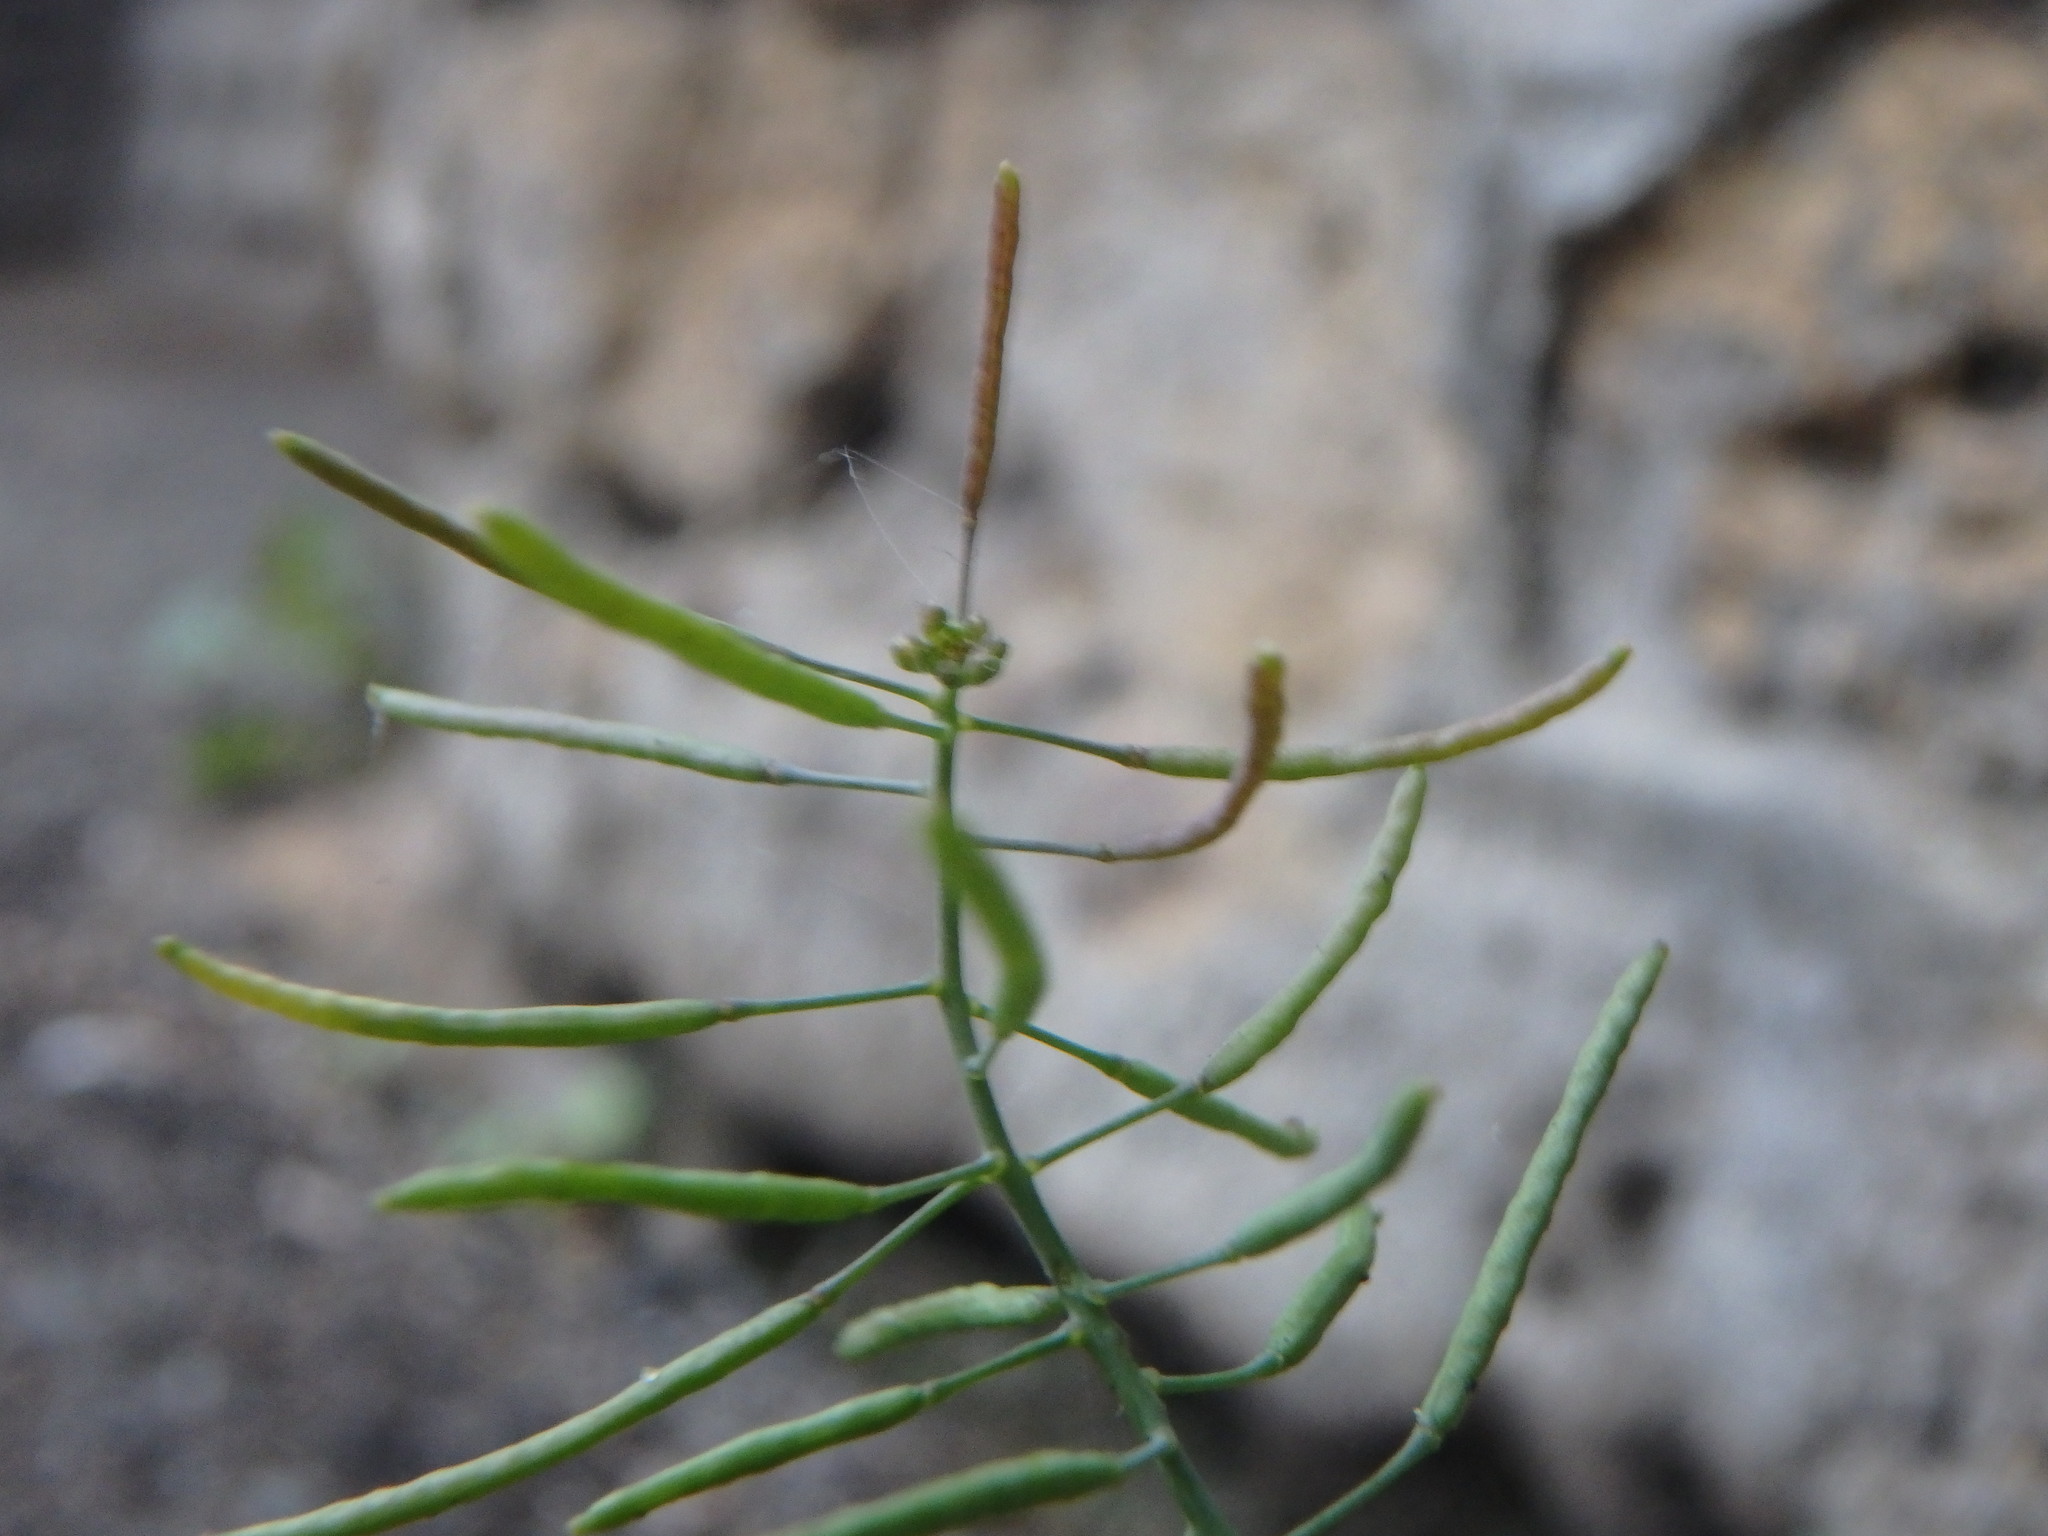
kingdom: Plantae
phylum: Tracheophyta
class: Magnoliopsida
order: Brassicales
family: Brassicaceae
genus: Arabidopsis
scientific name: Arabidopsis thaliana
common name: Thale cress
